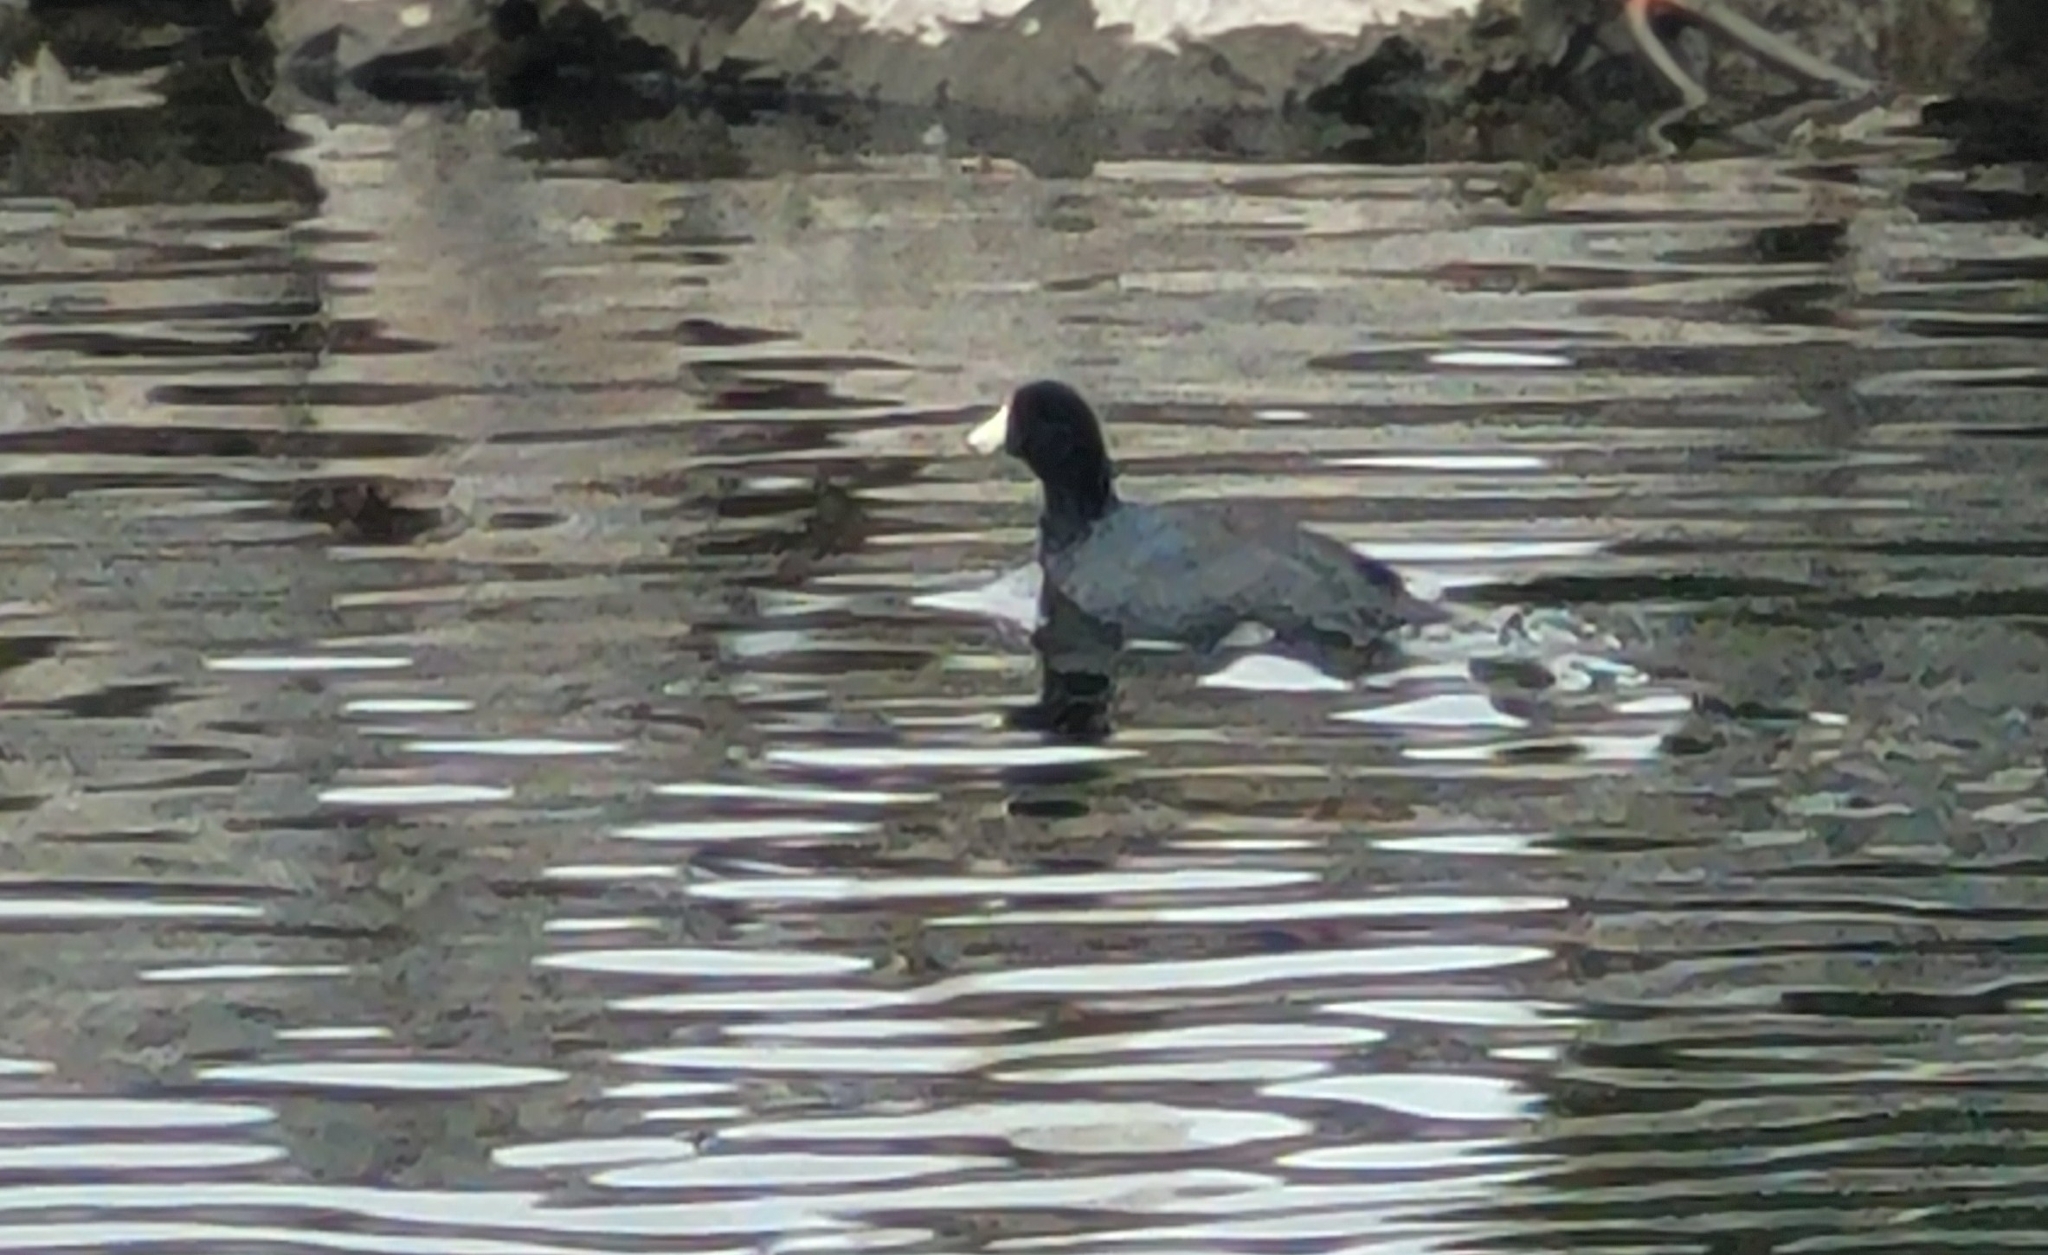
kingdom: Animalia
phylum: Chordata
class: Aves
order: Gruiformes
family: Rallidae
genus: Fulica
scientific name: Fulica americana
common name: American coot
